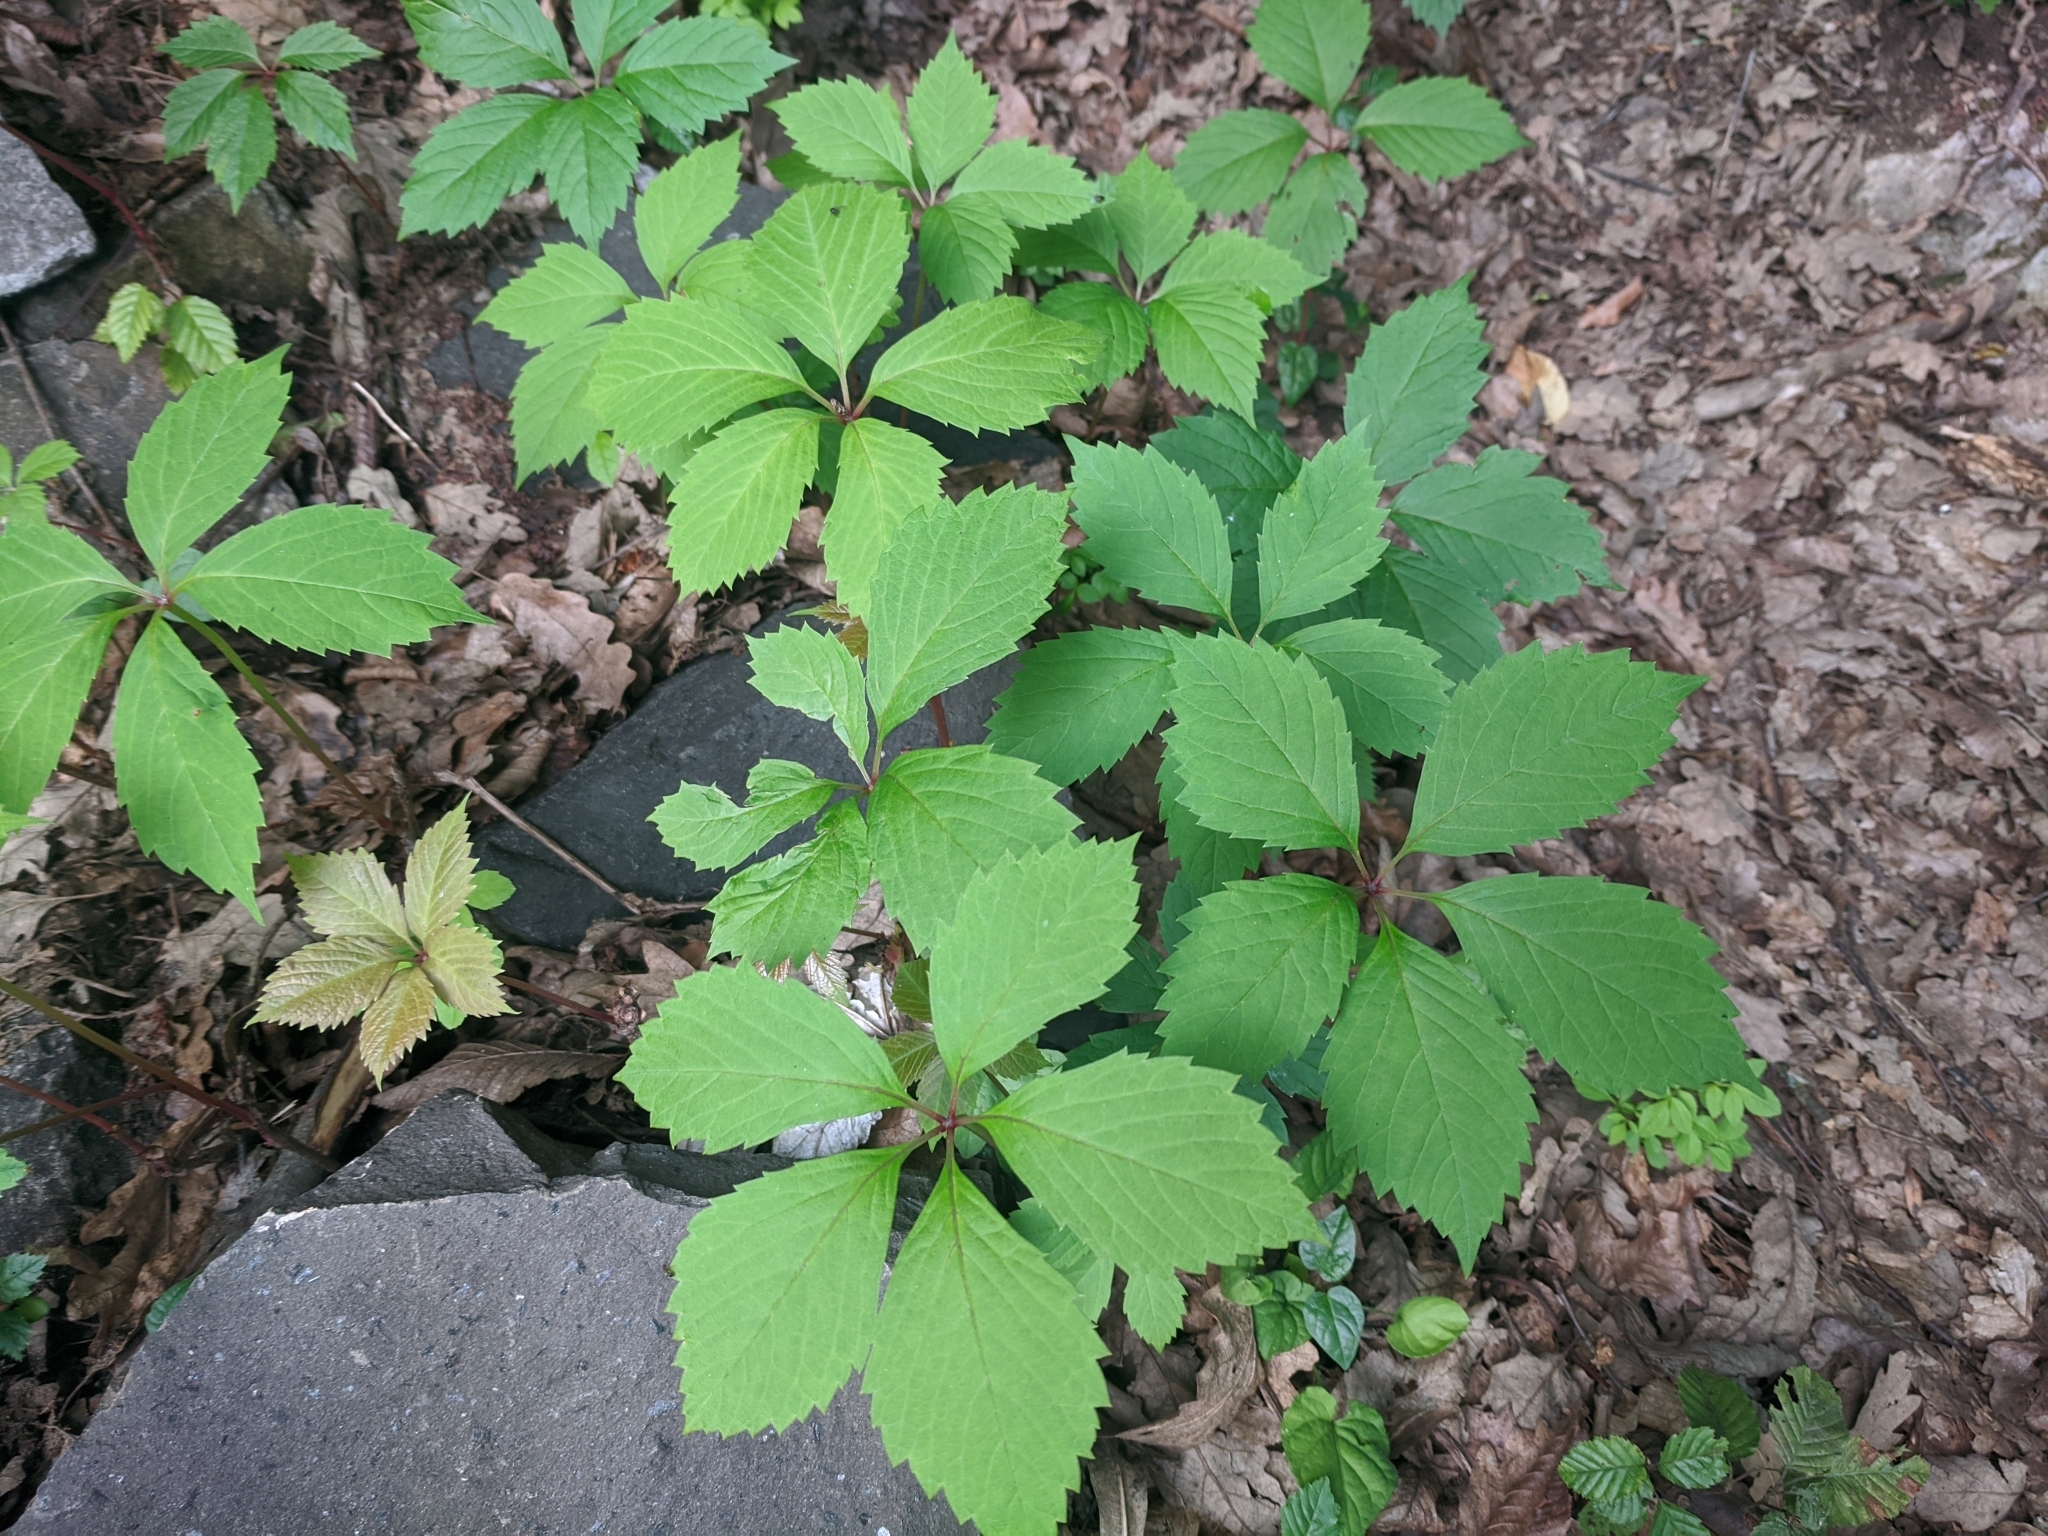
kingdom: Plantae
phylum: Tracheophyta
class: Magnoliopsida
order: Vitales
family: Vitaceae
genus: Parthenocissus
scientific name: Parthenocissus inserta
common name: False virginia-creeper
